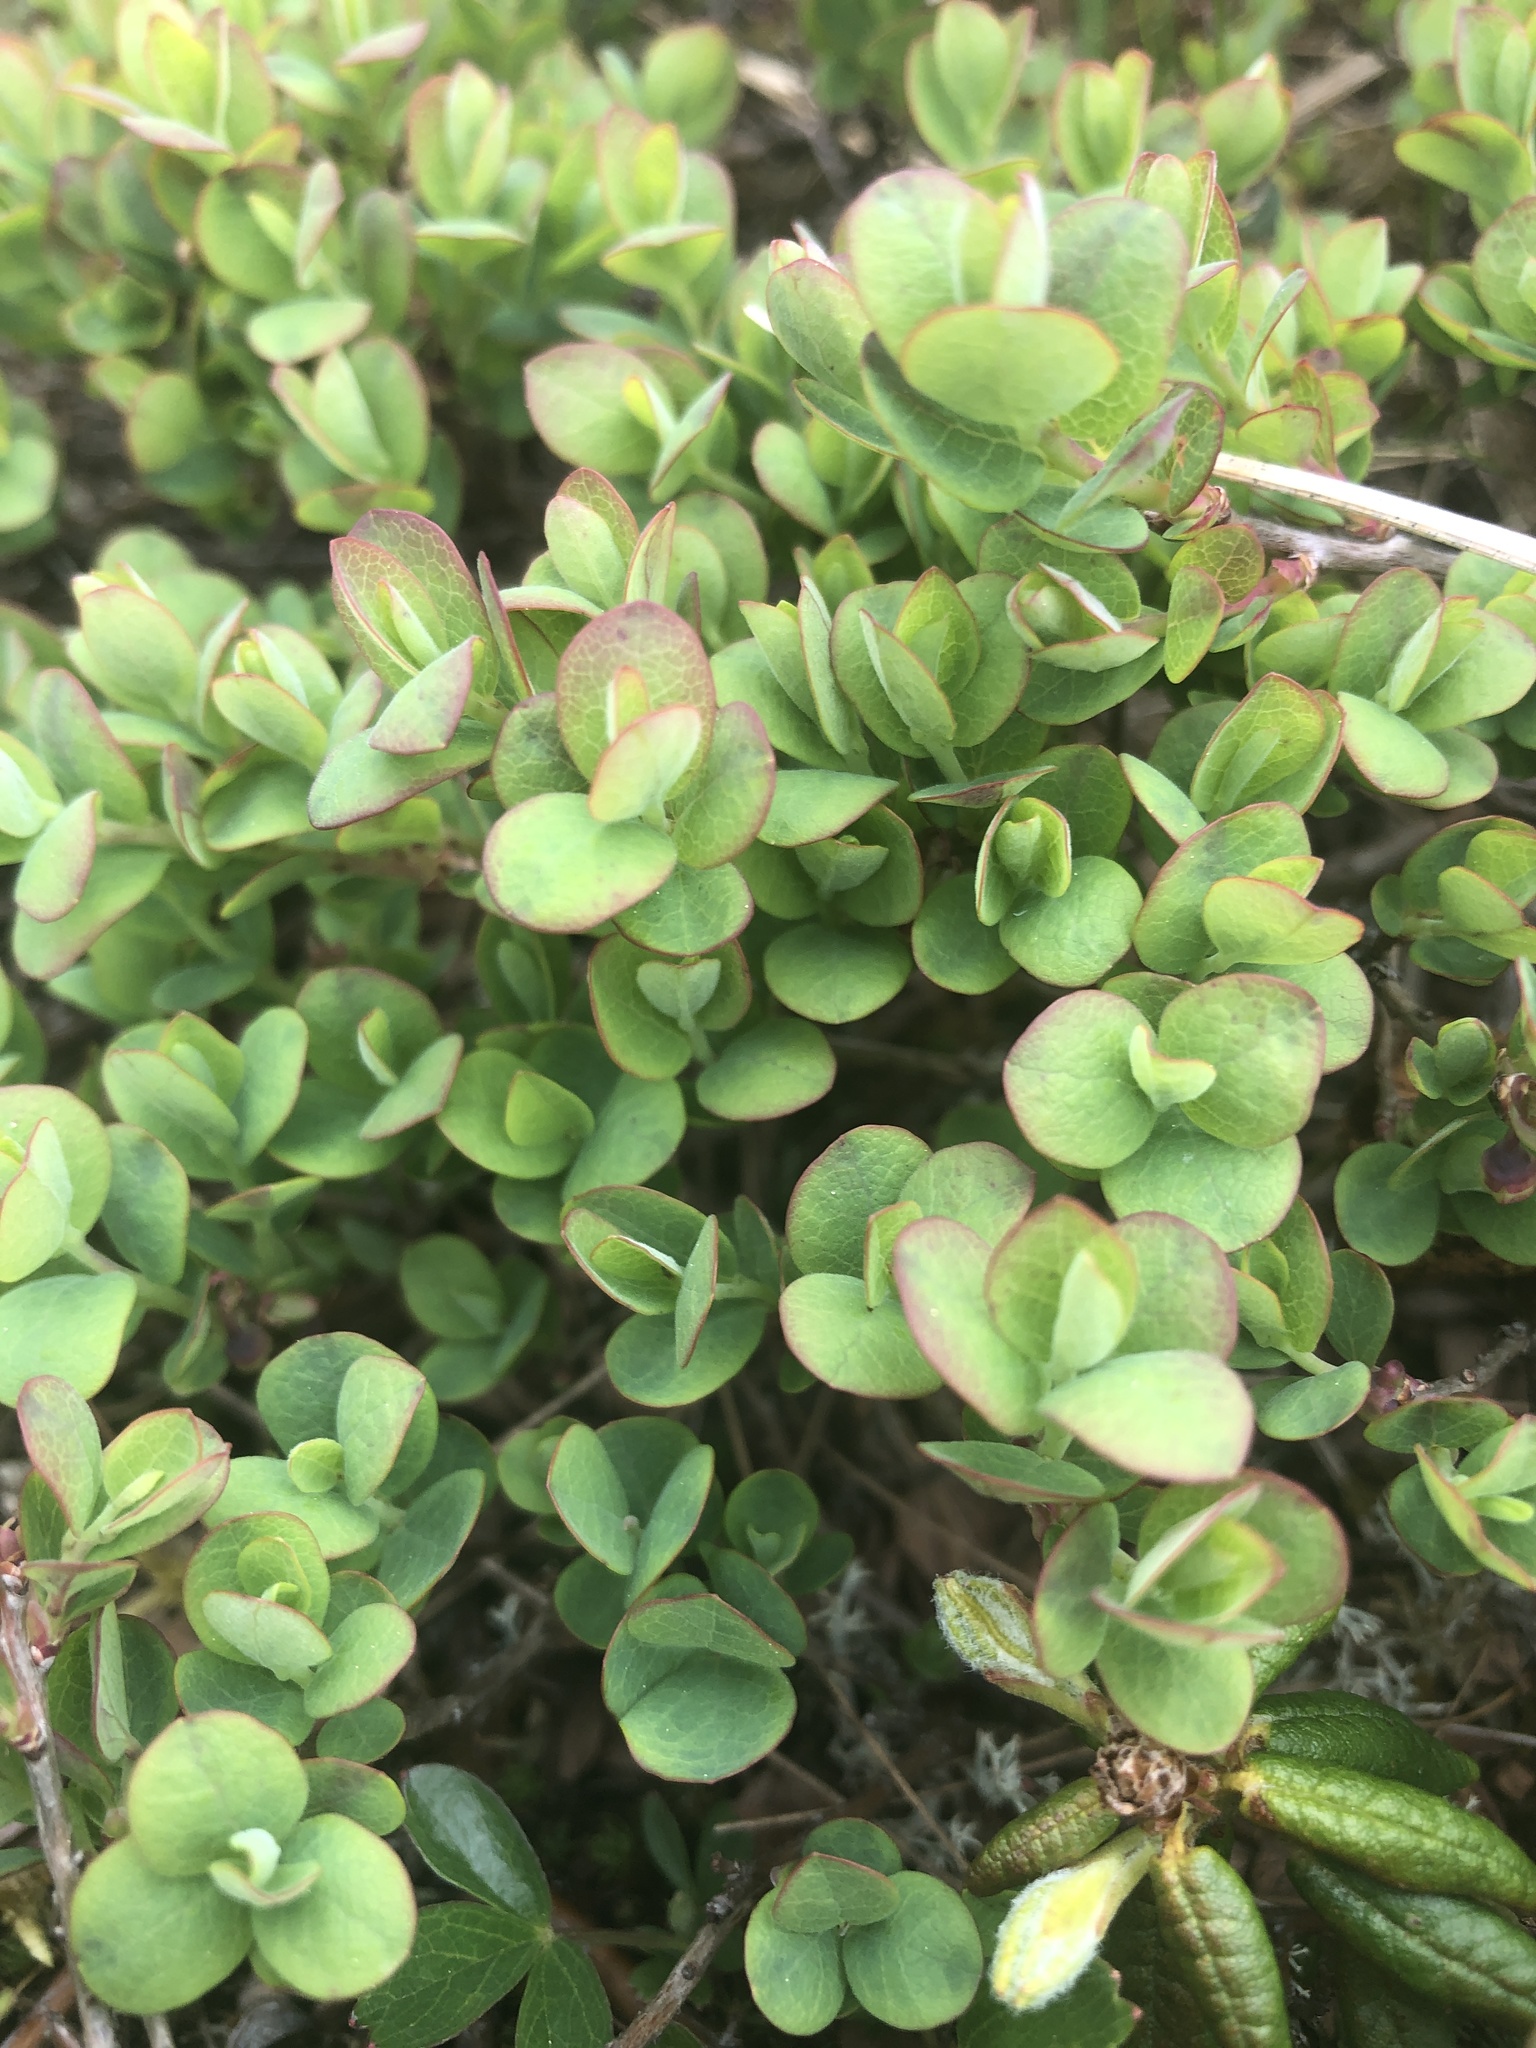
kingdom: Plantae
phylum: Tracheophyta
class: Magnoliopsida
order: Ericales
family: Ericaceae
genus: Vaccinium
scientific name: Vaccinium uliginosum
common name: Bog bilberry
